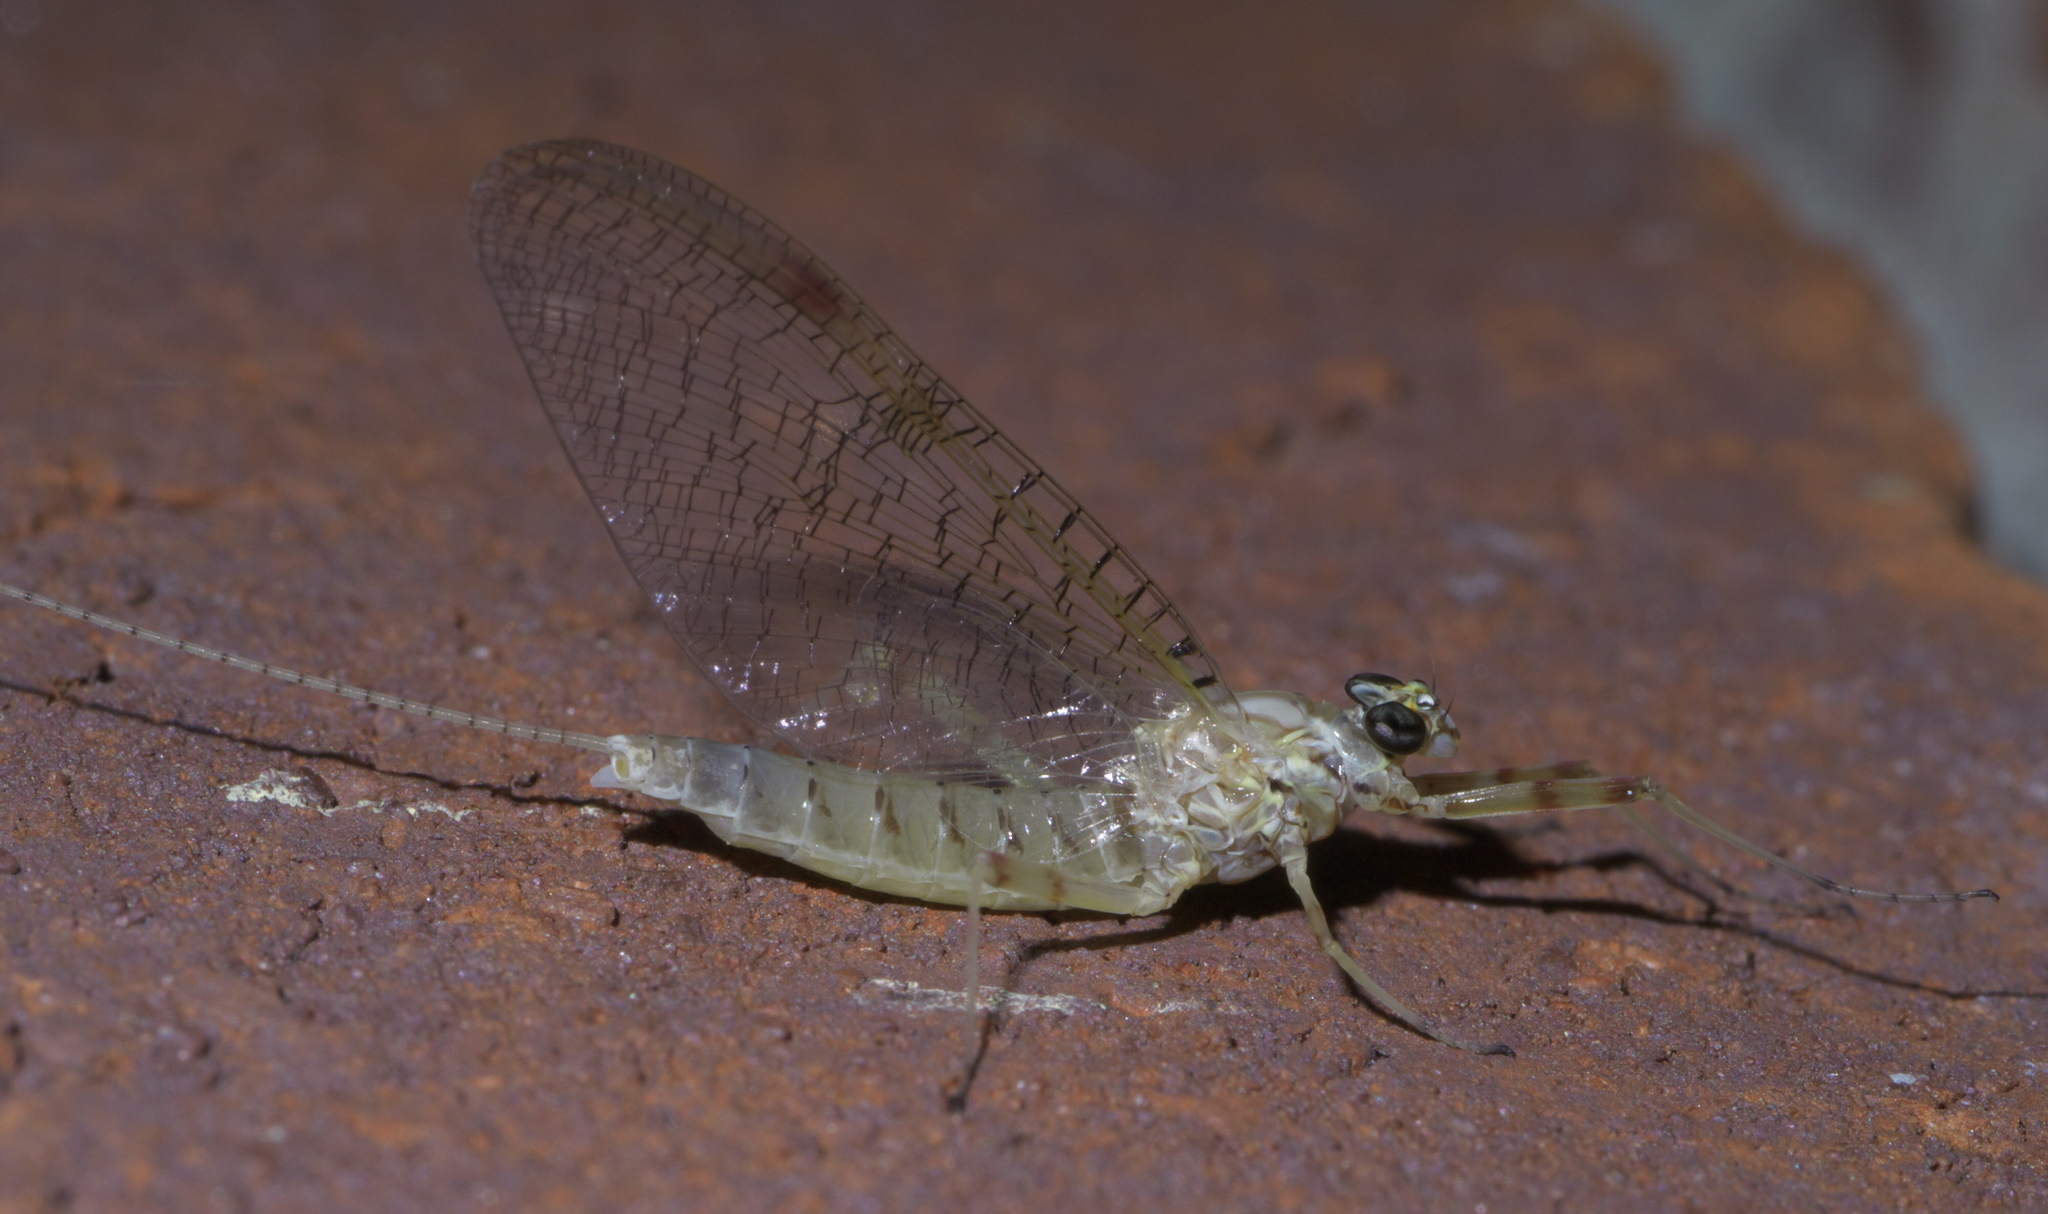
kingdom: Animalia
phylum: Arthropoda
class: Insecta
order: Ephemeroptera
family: Heptageniidae
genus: Stenonema
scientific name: Stenonema femoratum
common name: Dark cahill
